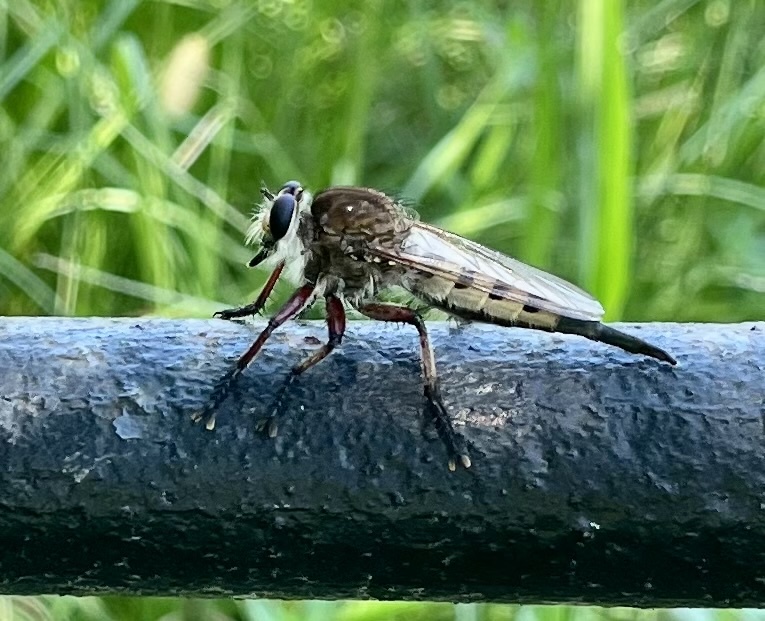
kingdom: Animalia
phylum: Arthropoda
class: Insecta
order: Diptera
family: Asilidae
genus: Promachus
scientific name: Promachus hinei
